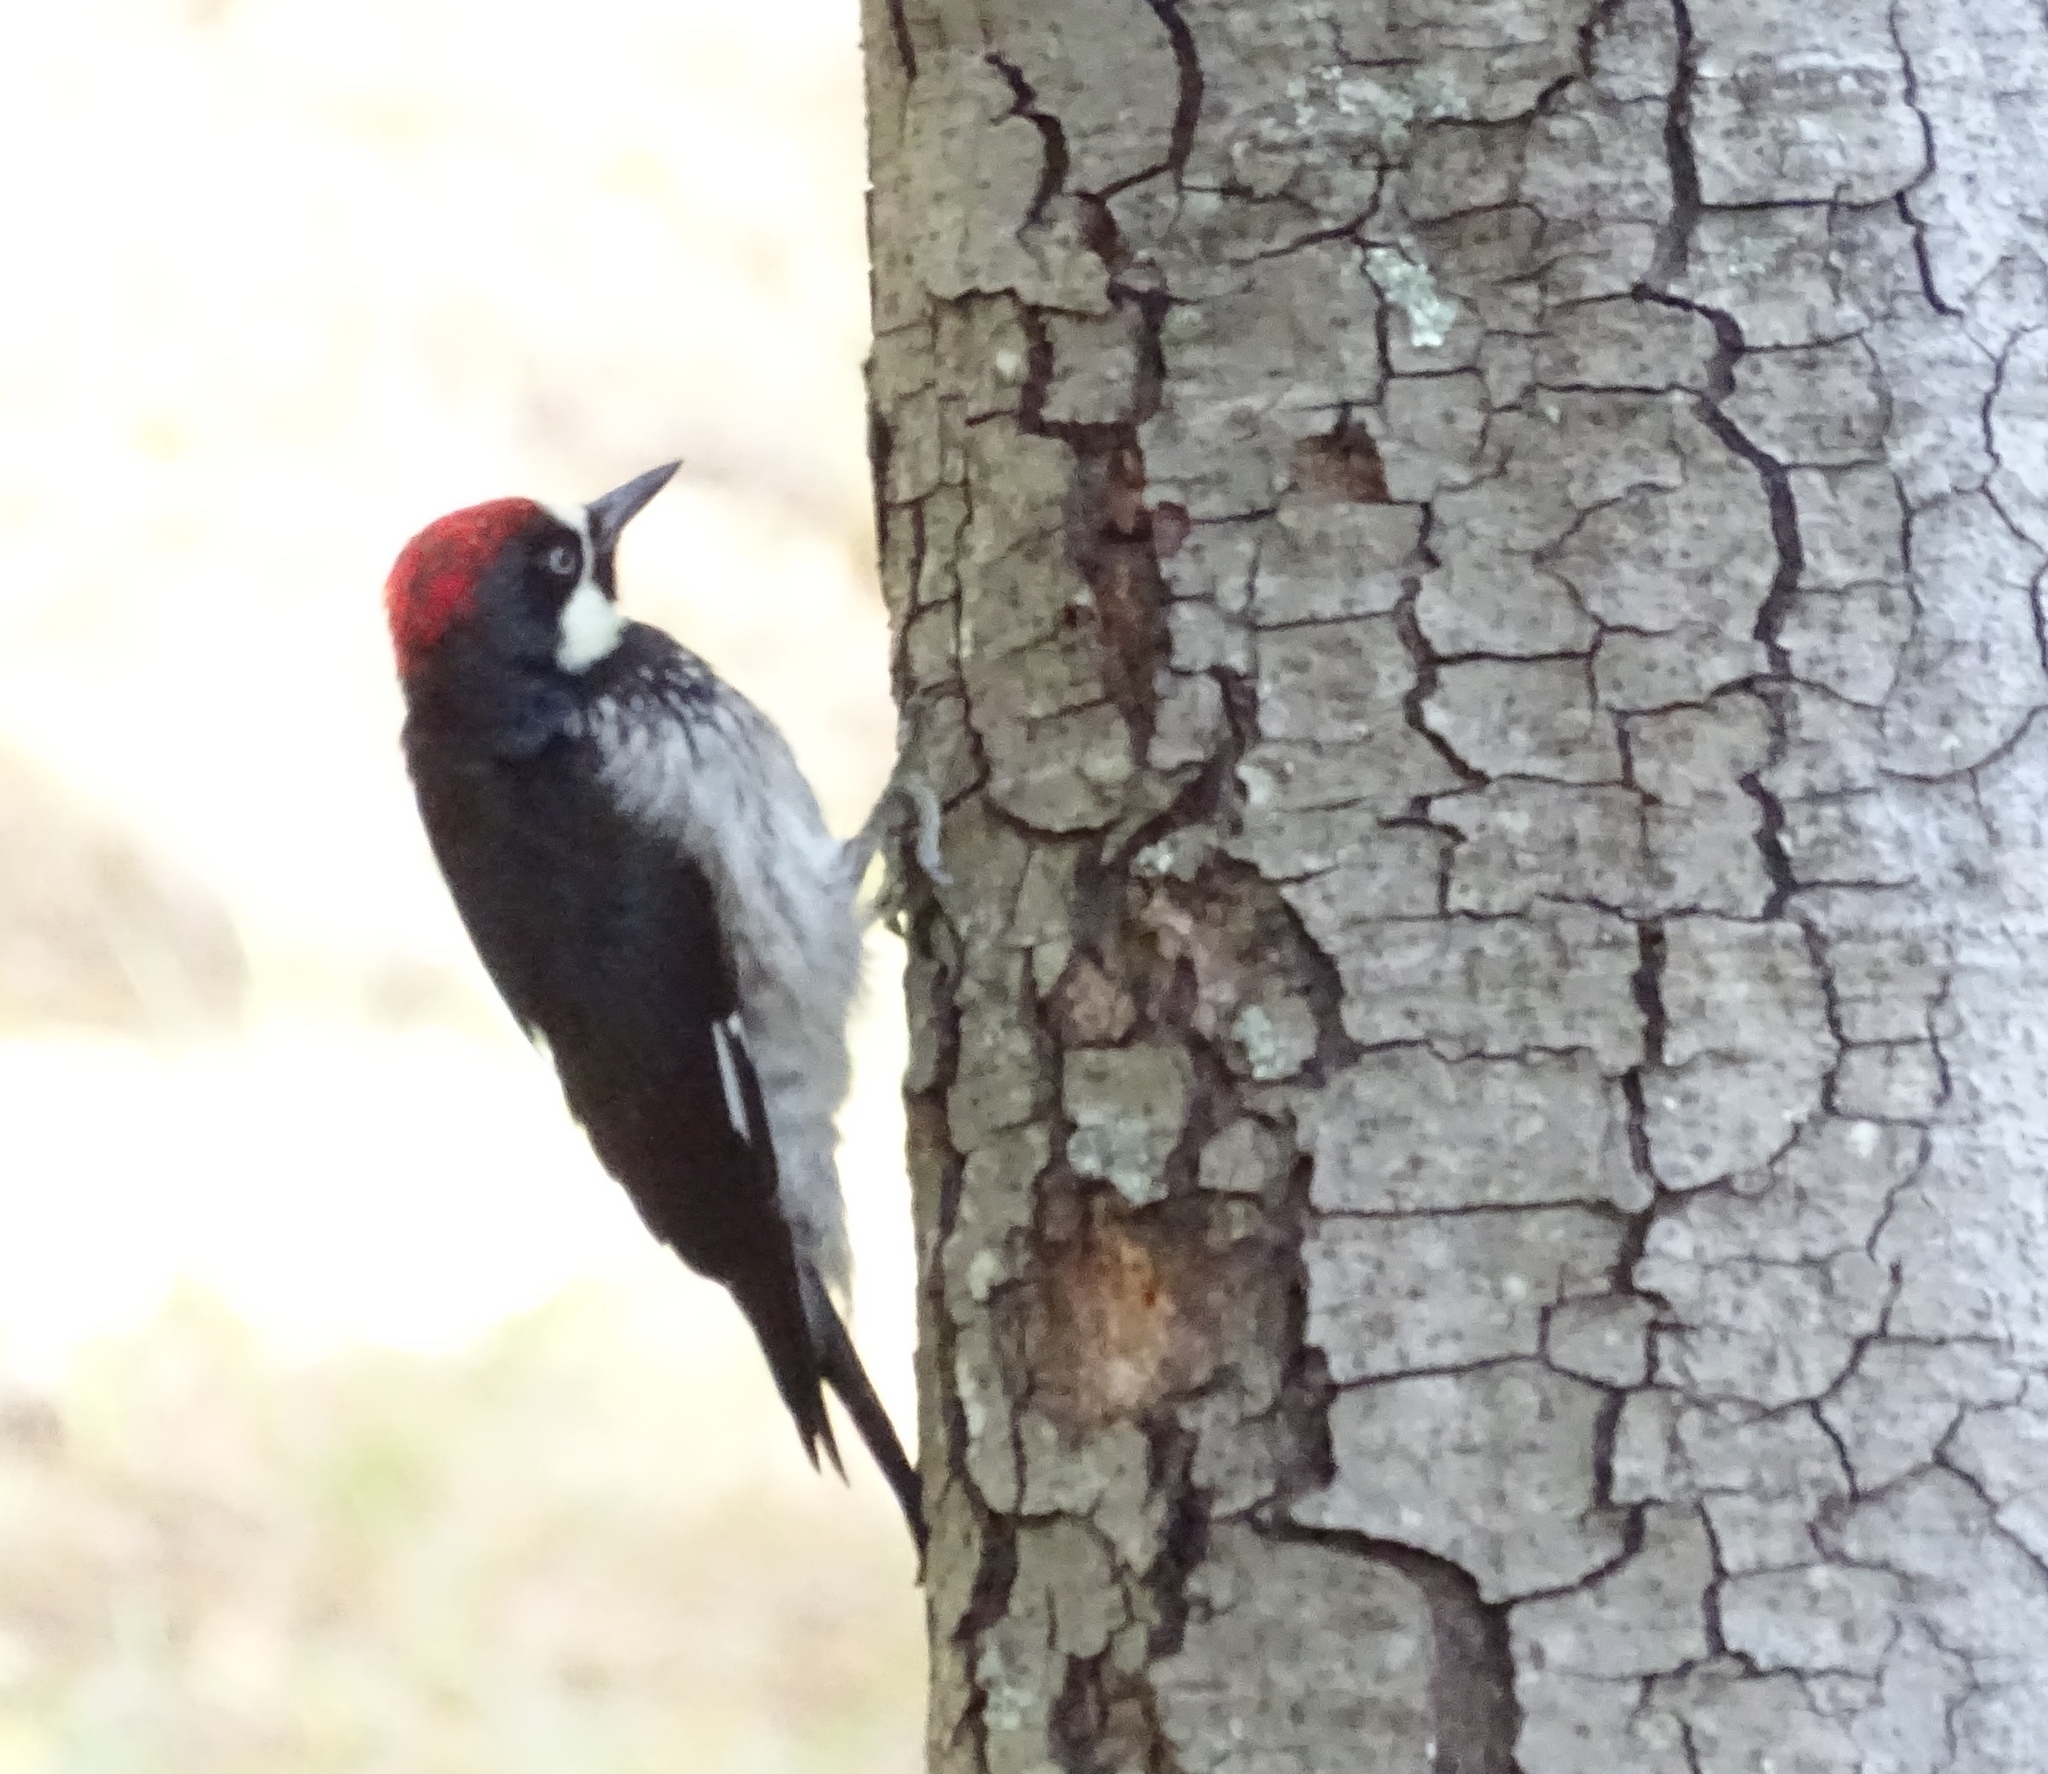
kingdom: Animalia
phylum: Chordata
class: Aves
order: Piciformes
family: Picidae
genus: Melanerpes
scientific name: Melanerpes formicivorus
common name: Acorn woodpecker
